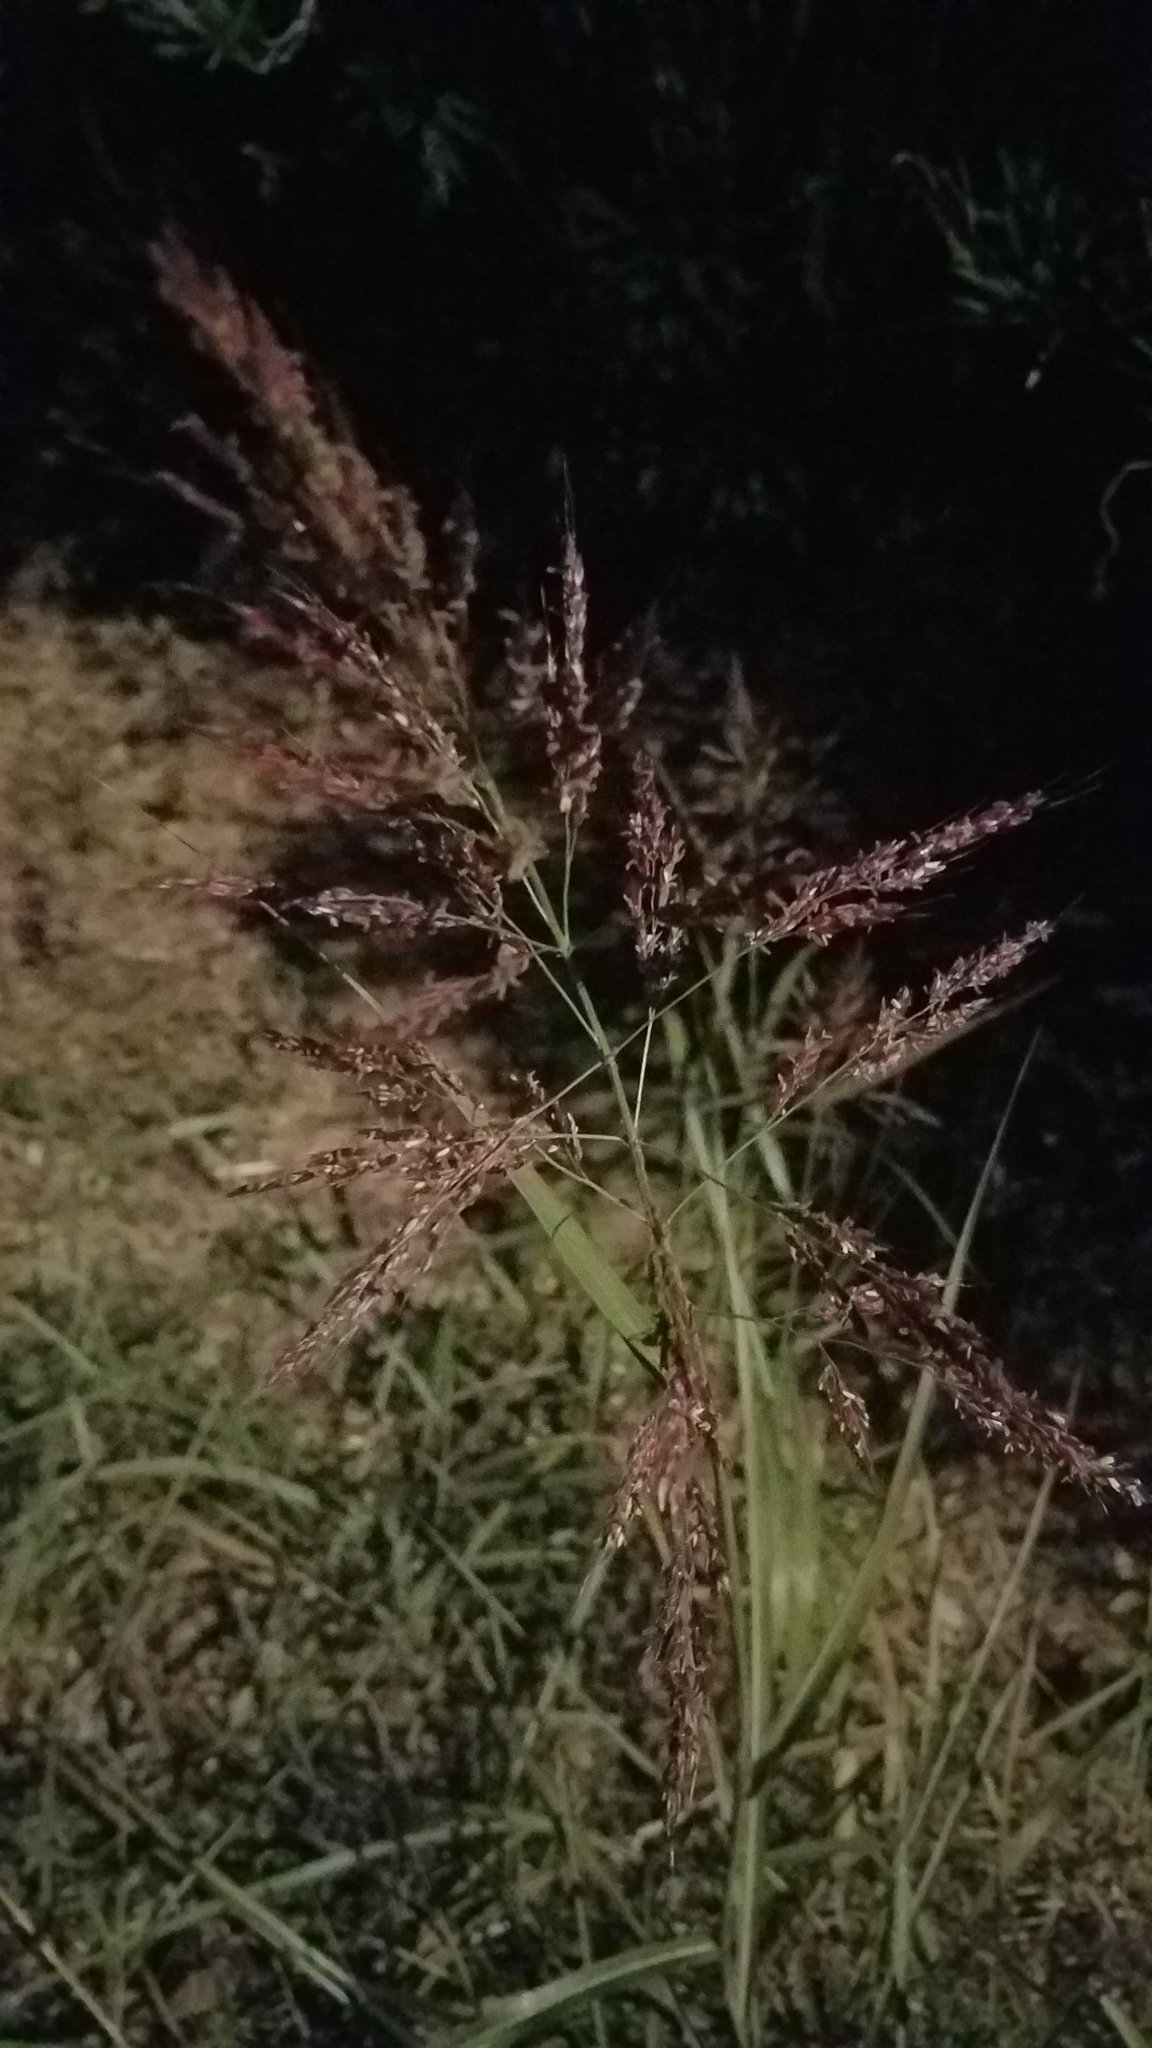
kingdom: Plantae
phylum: Tracheophyta
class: Liliopsida
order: Poales
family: Poaceae
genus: Sorghum
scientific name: Sorghum halepense
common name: Johnson-grass
